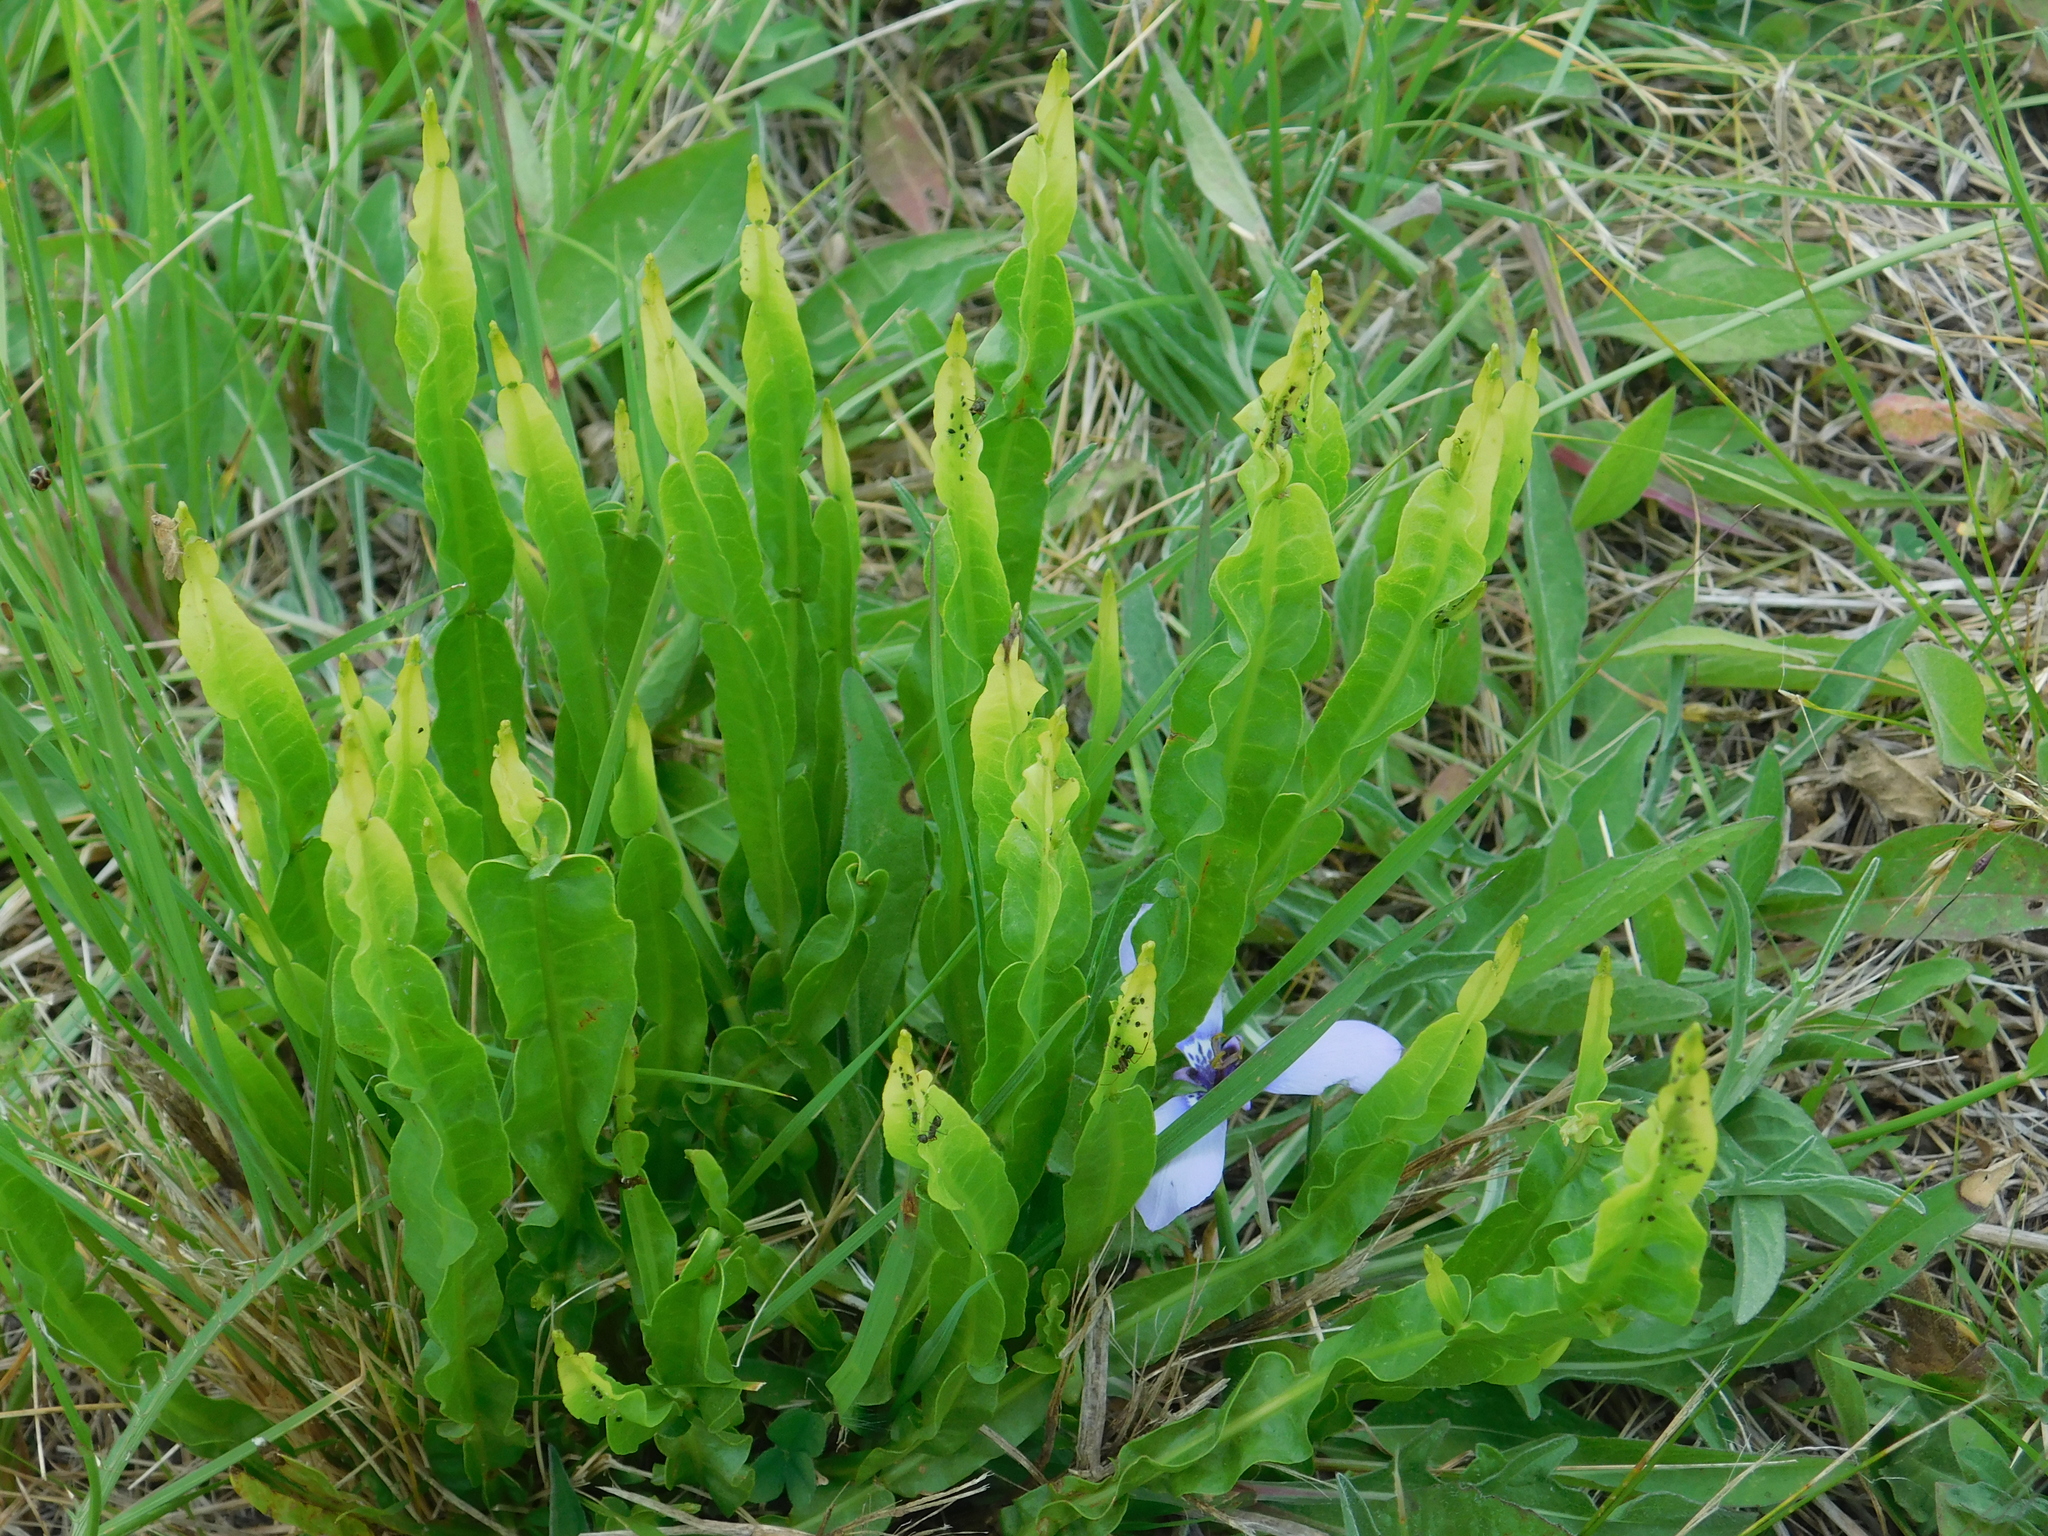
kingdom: Plantae
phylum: Tracheophyta
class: Magnoliopsida
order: Asterales
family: Asteraceae
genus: Baccharis
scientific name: Baccharis trimera
